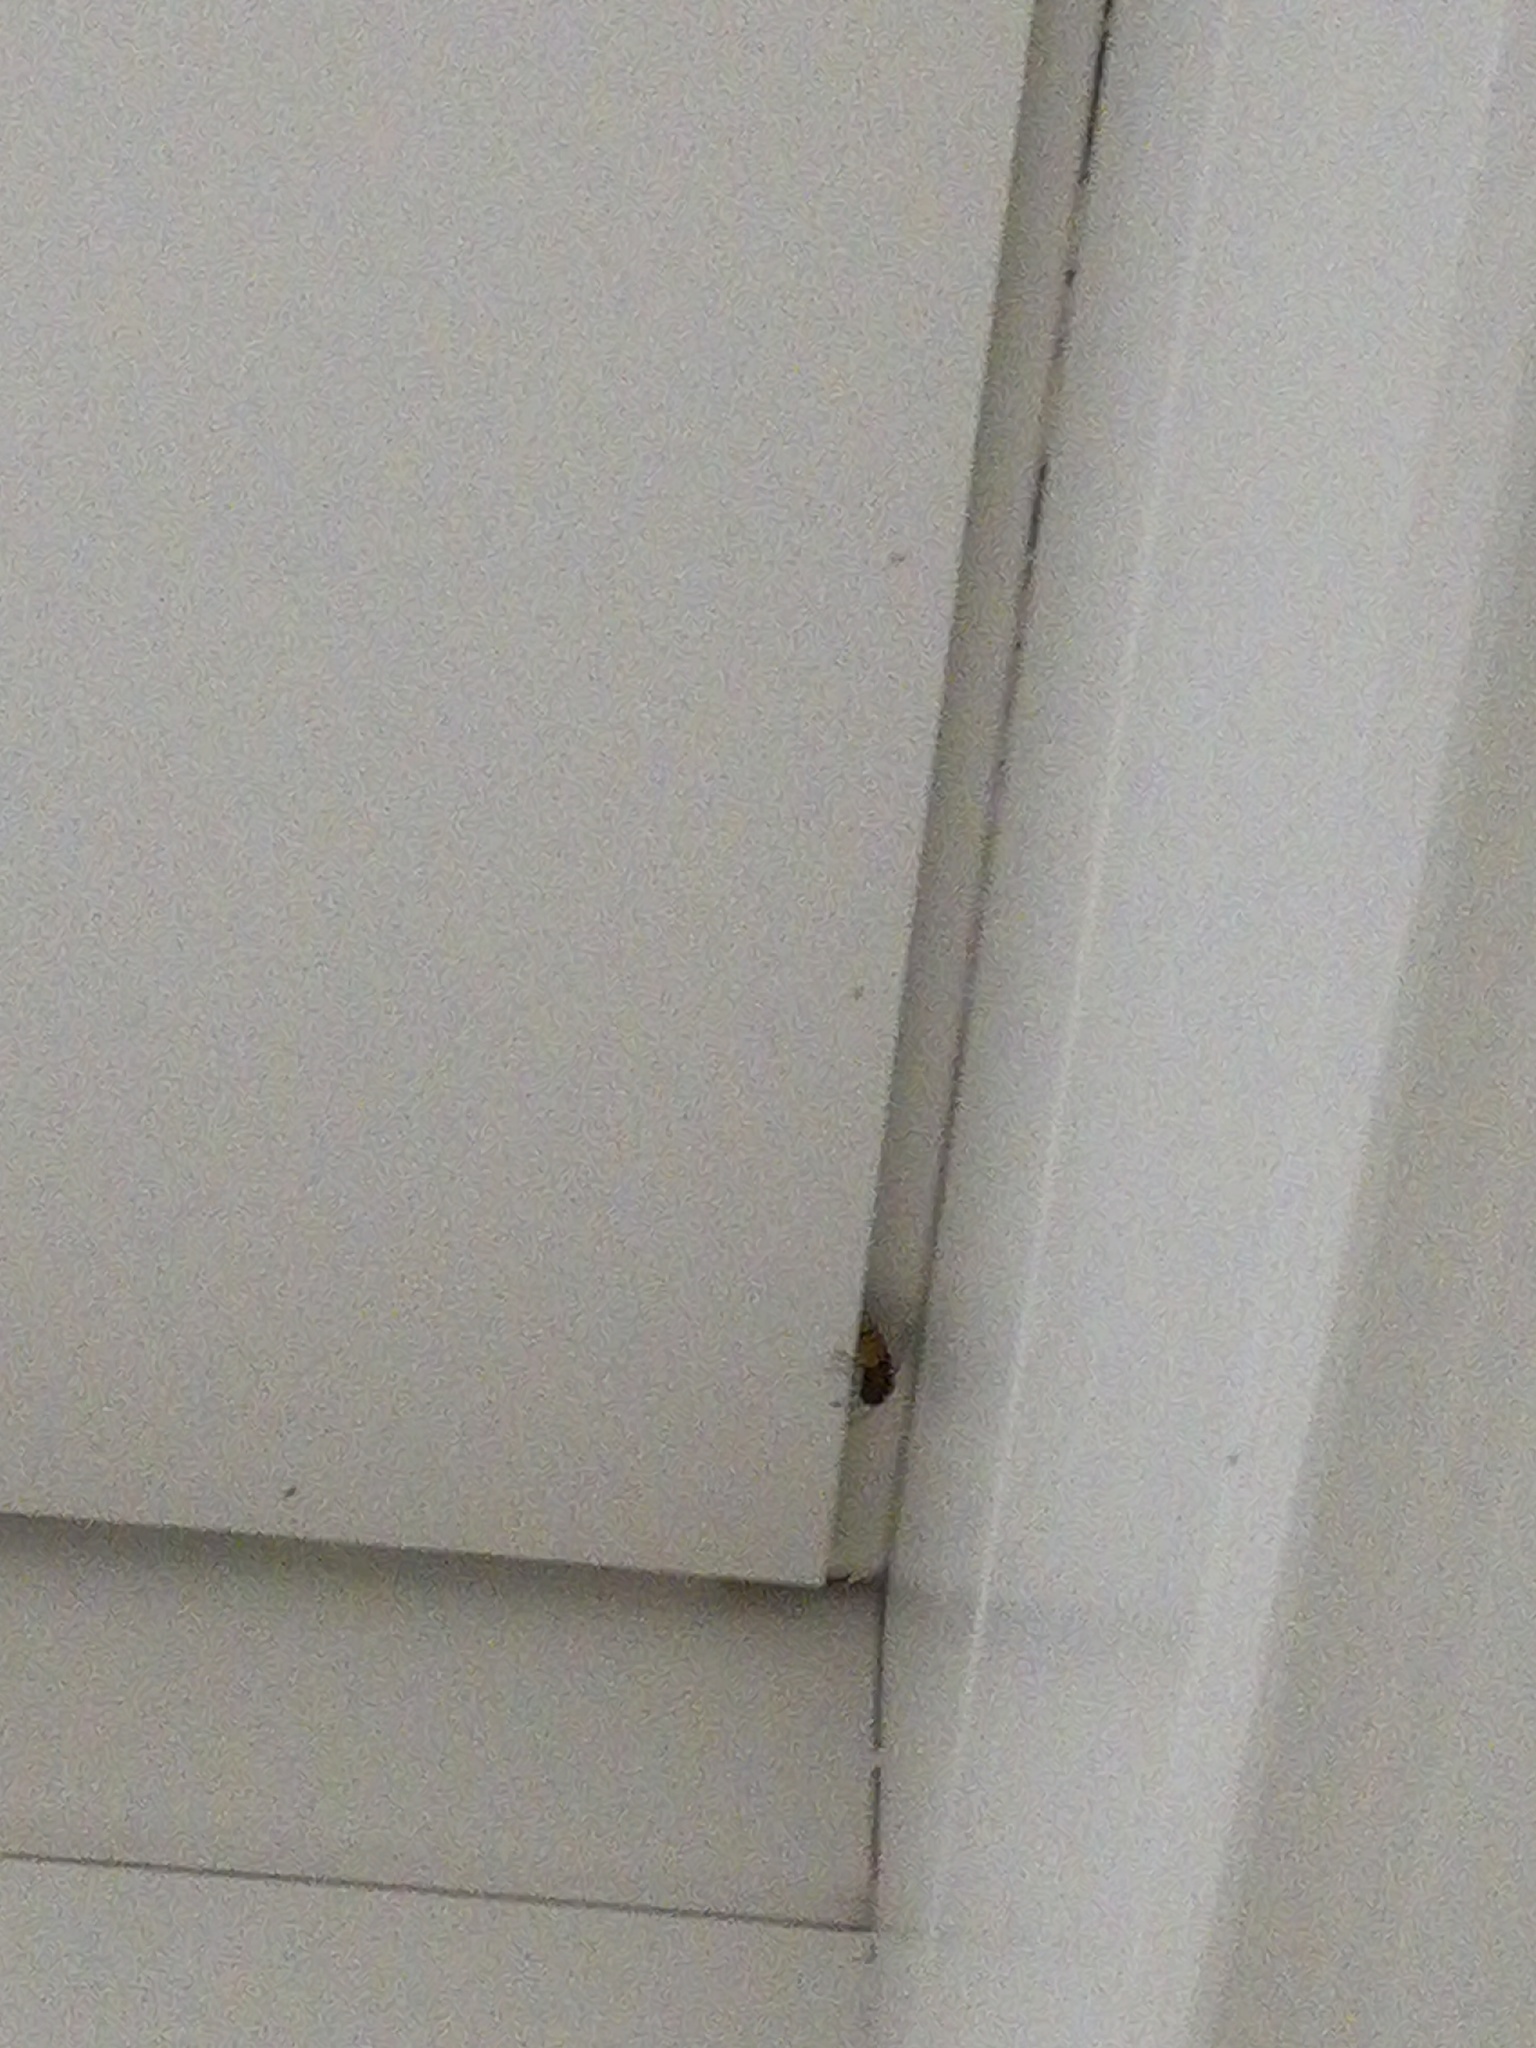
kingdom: Animalia
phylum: Arthropoda
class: Insecta
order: Hymenoptera
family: Vespidae
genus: Vespa
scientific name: Vespa crabro
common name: Hornet
